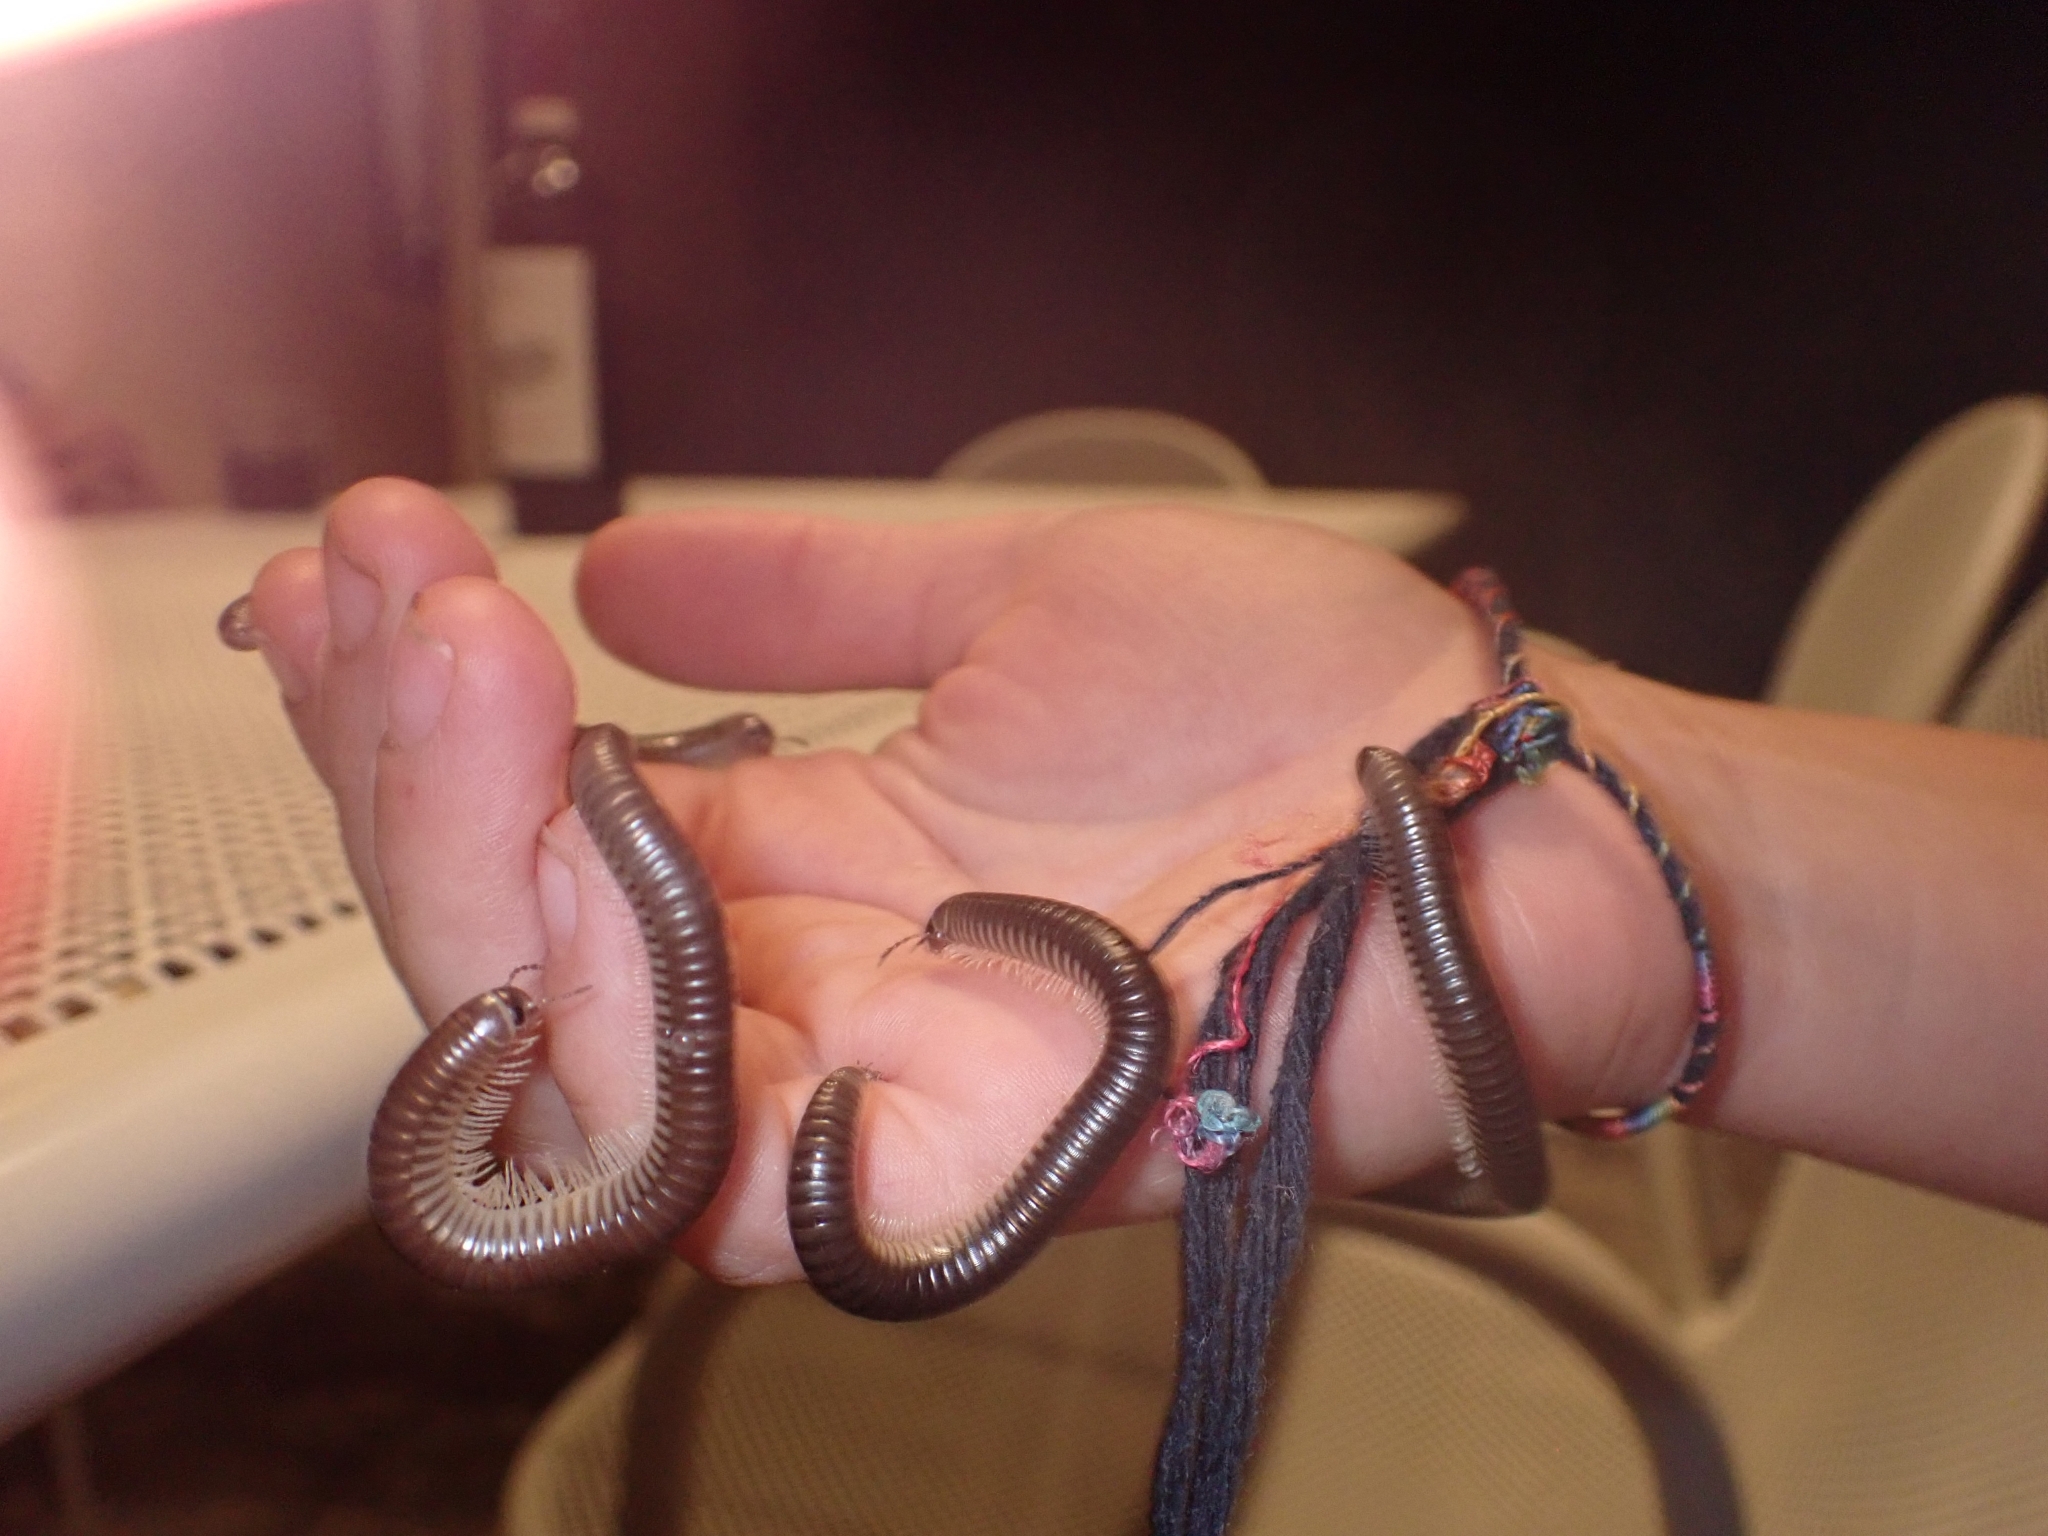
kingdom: Animalia
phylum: Arthropoda
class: Diplopoda
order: Julida
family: Julidae
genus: Pachyiulus
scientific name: Pachyiulus flavipes
